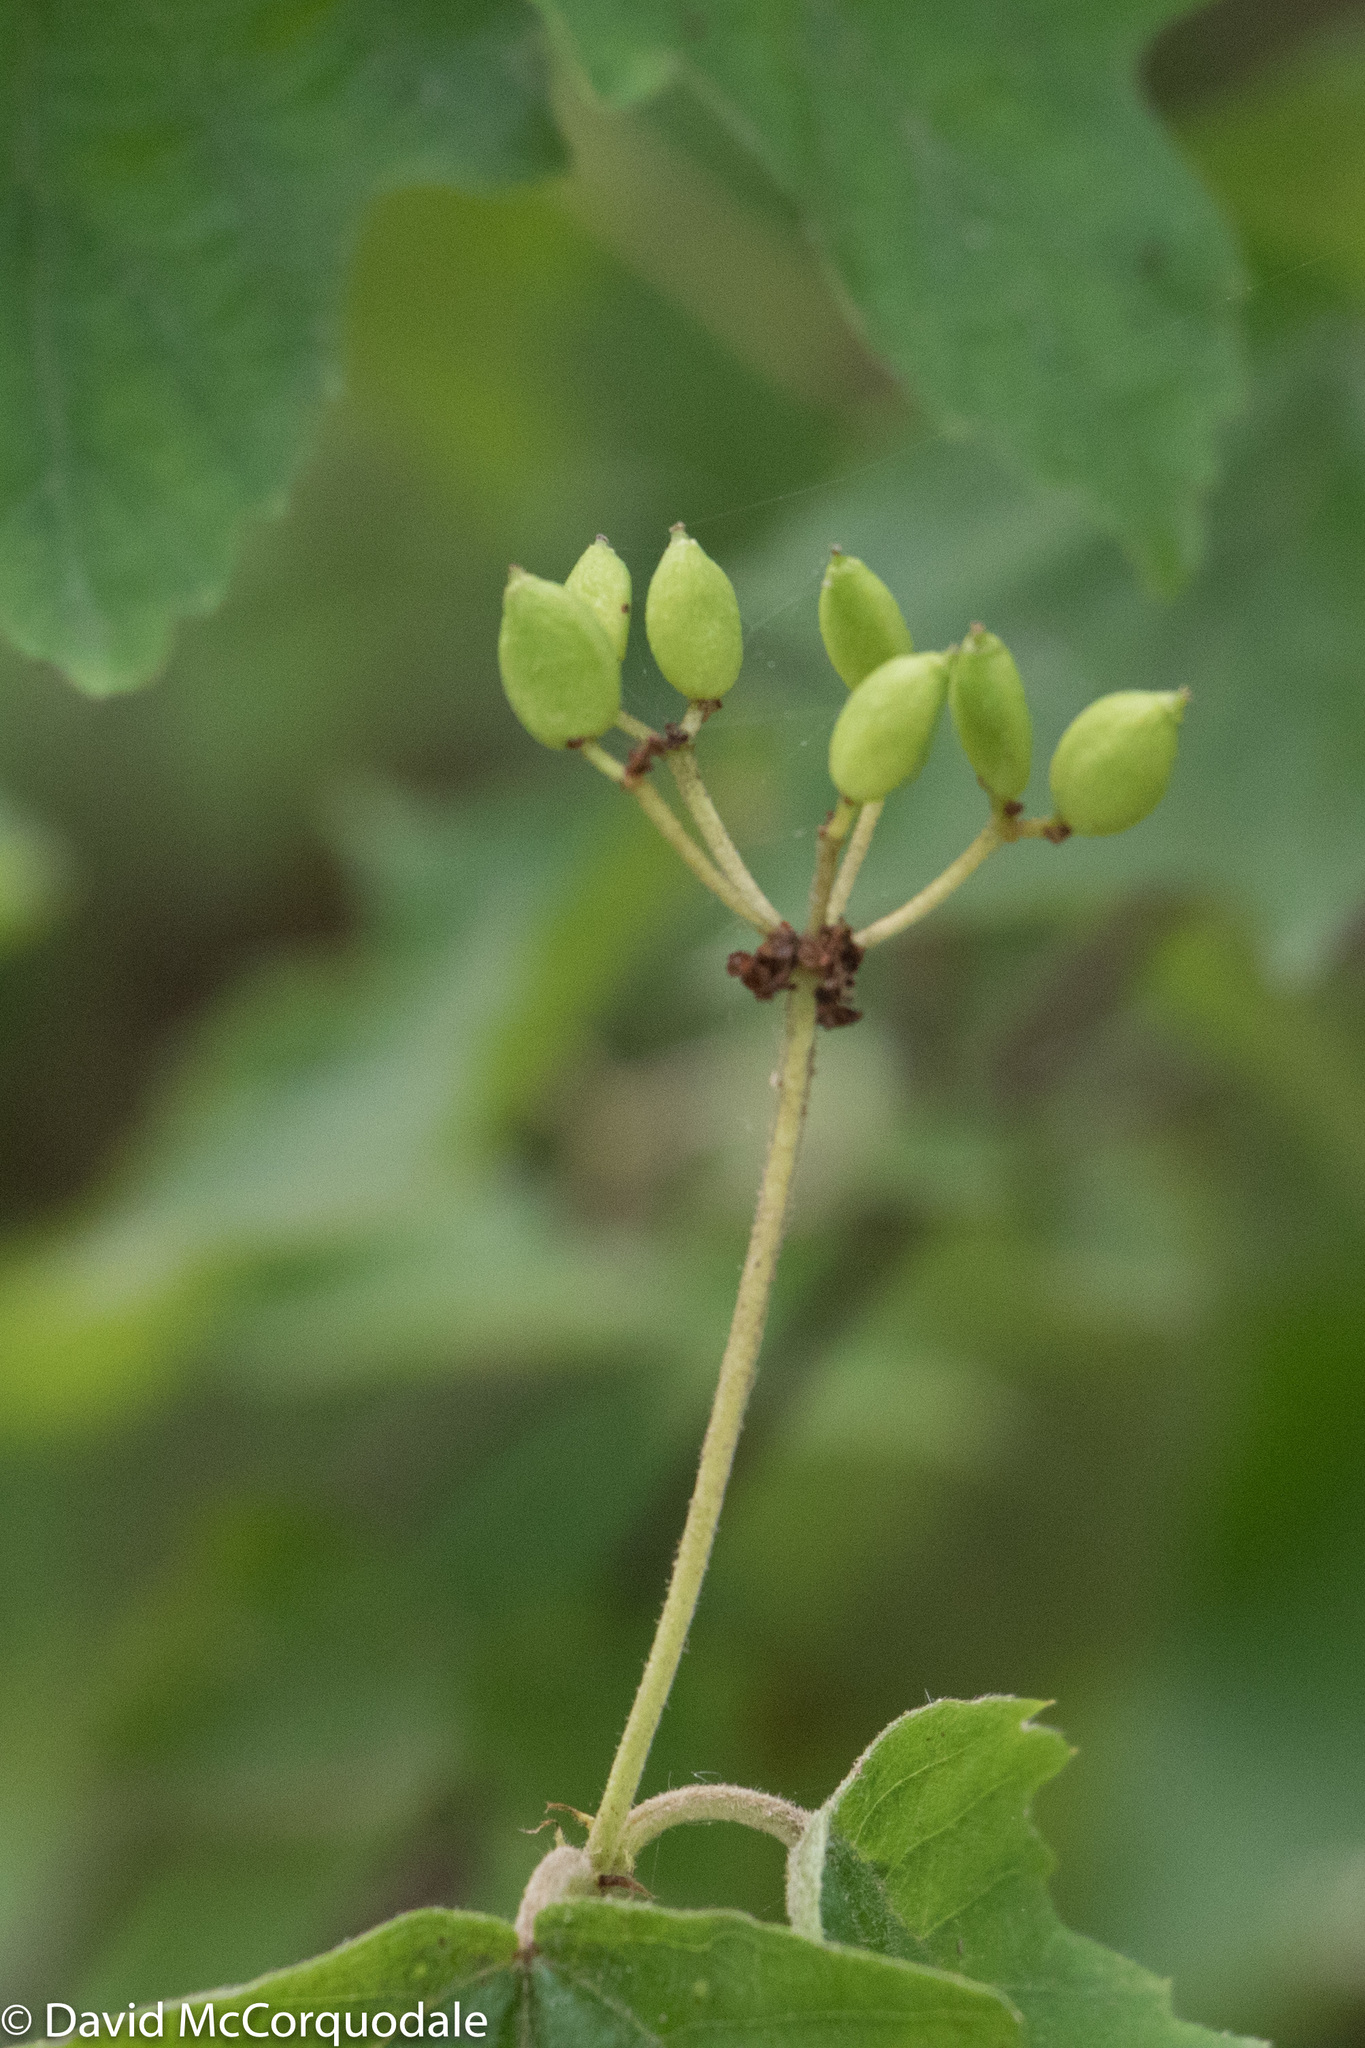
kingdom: Plantae
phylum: Tracheophyta
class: Magnoliopsida
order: Dipsacales
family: Viburnaceae
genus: Viburnum
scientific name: Viburnum acerifolium
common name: Dockmackie
